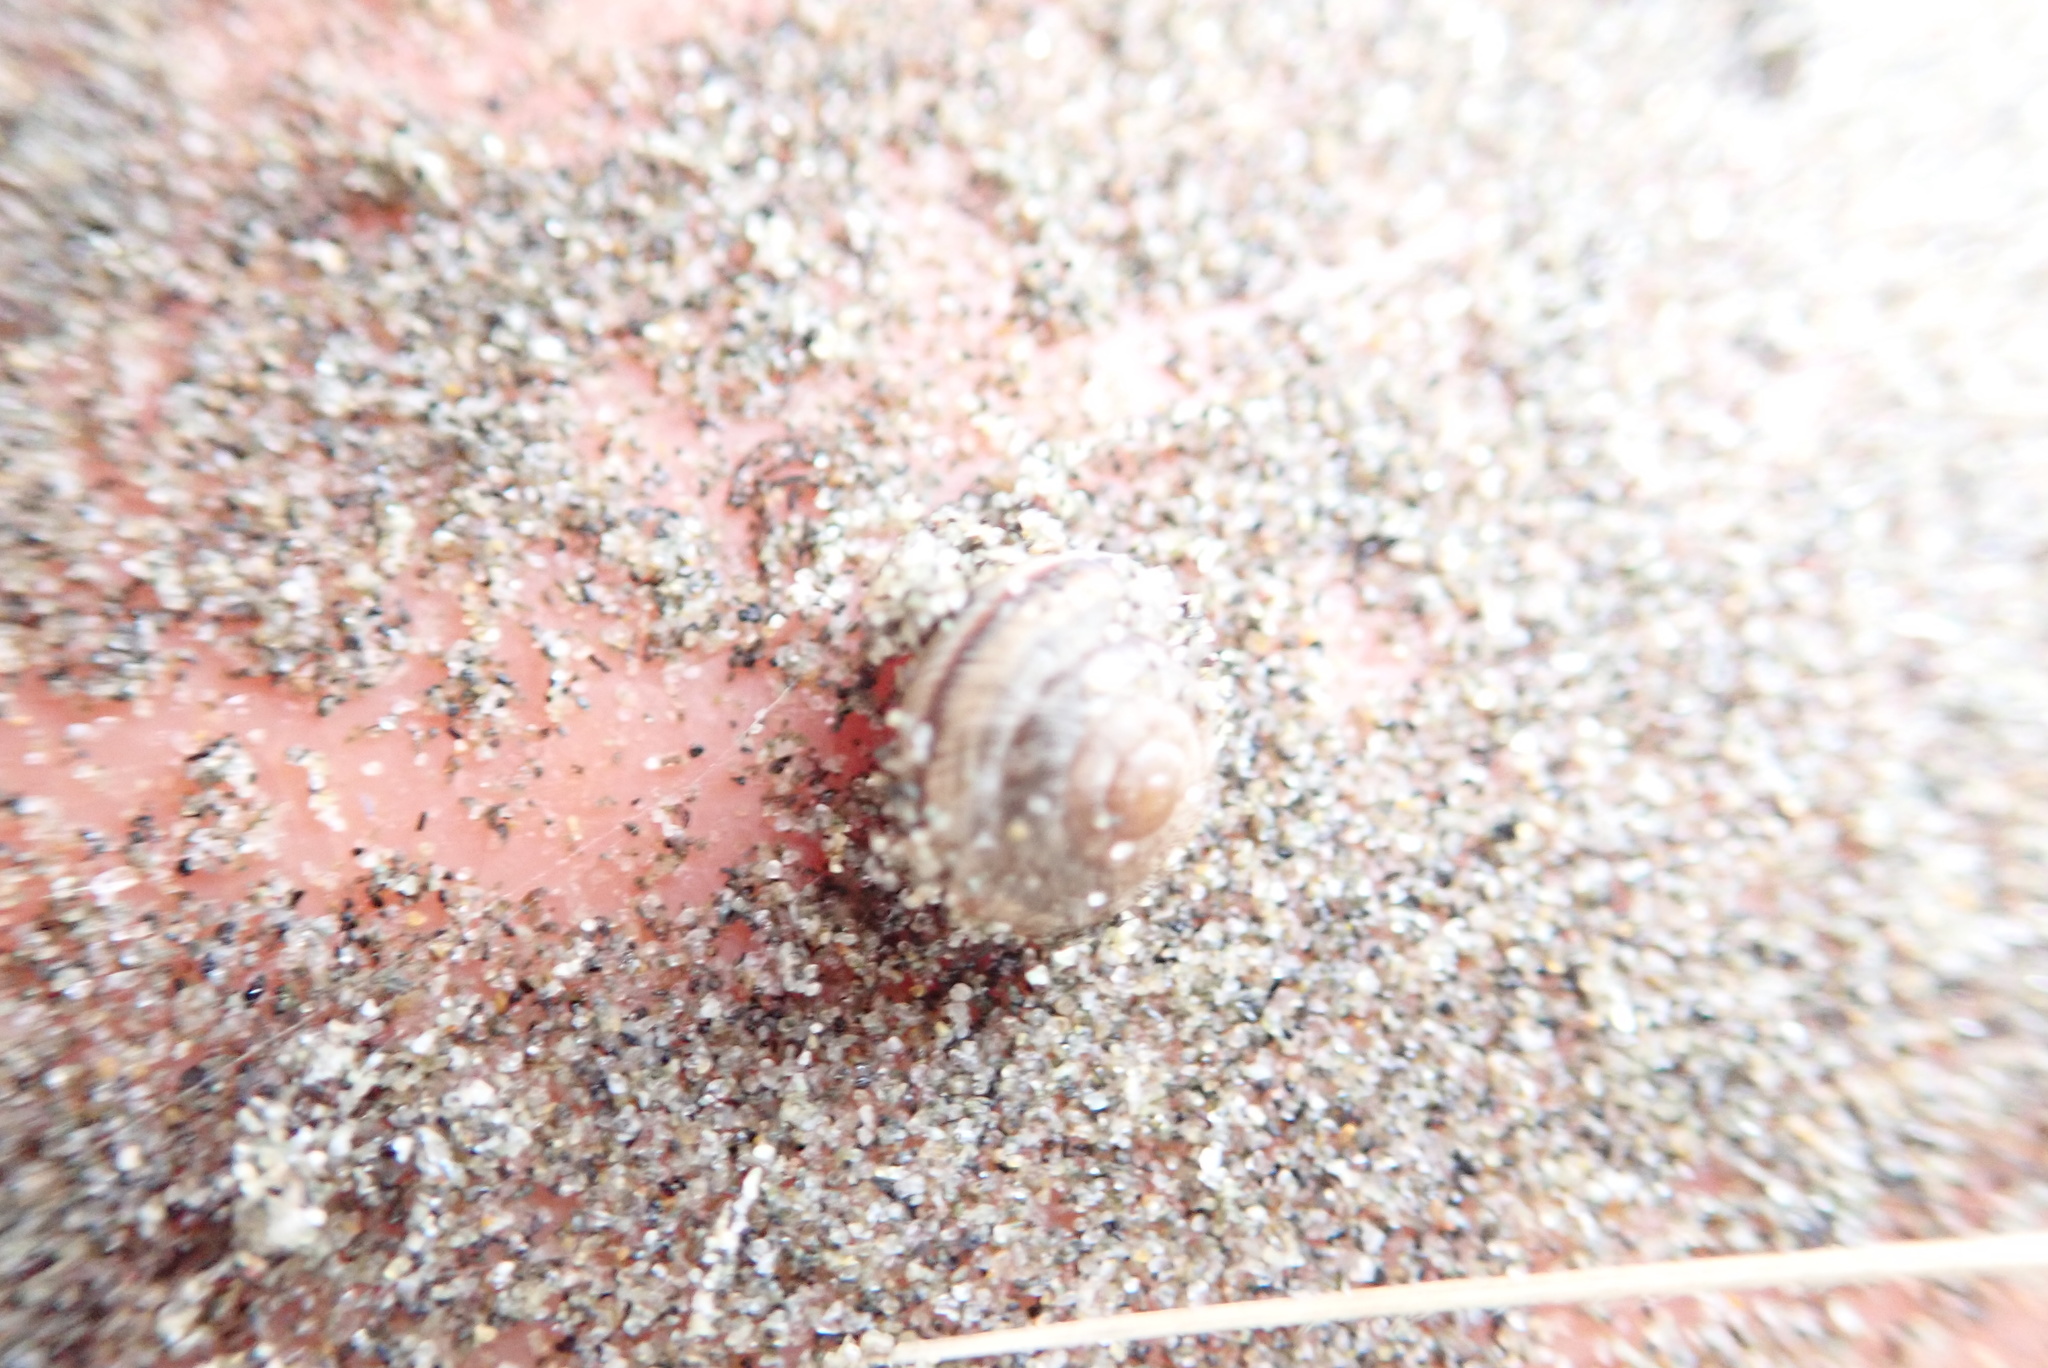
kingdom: Animalia
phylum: Mollusca
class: Gastropoda
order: Stylommatophora
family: Geomitridae
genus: Xeroplexa
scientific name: Xeroplexa intersecta
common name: Wrinkled snail
